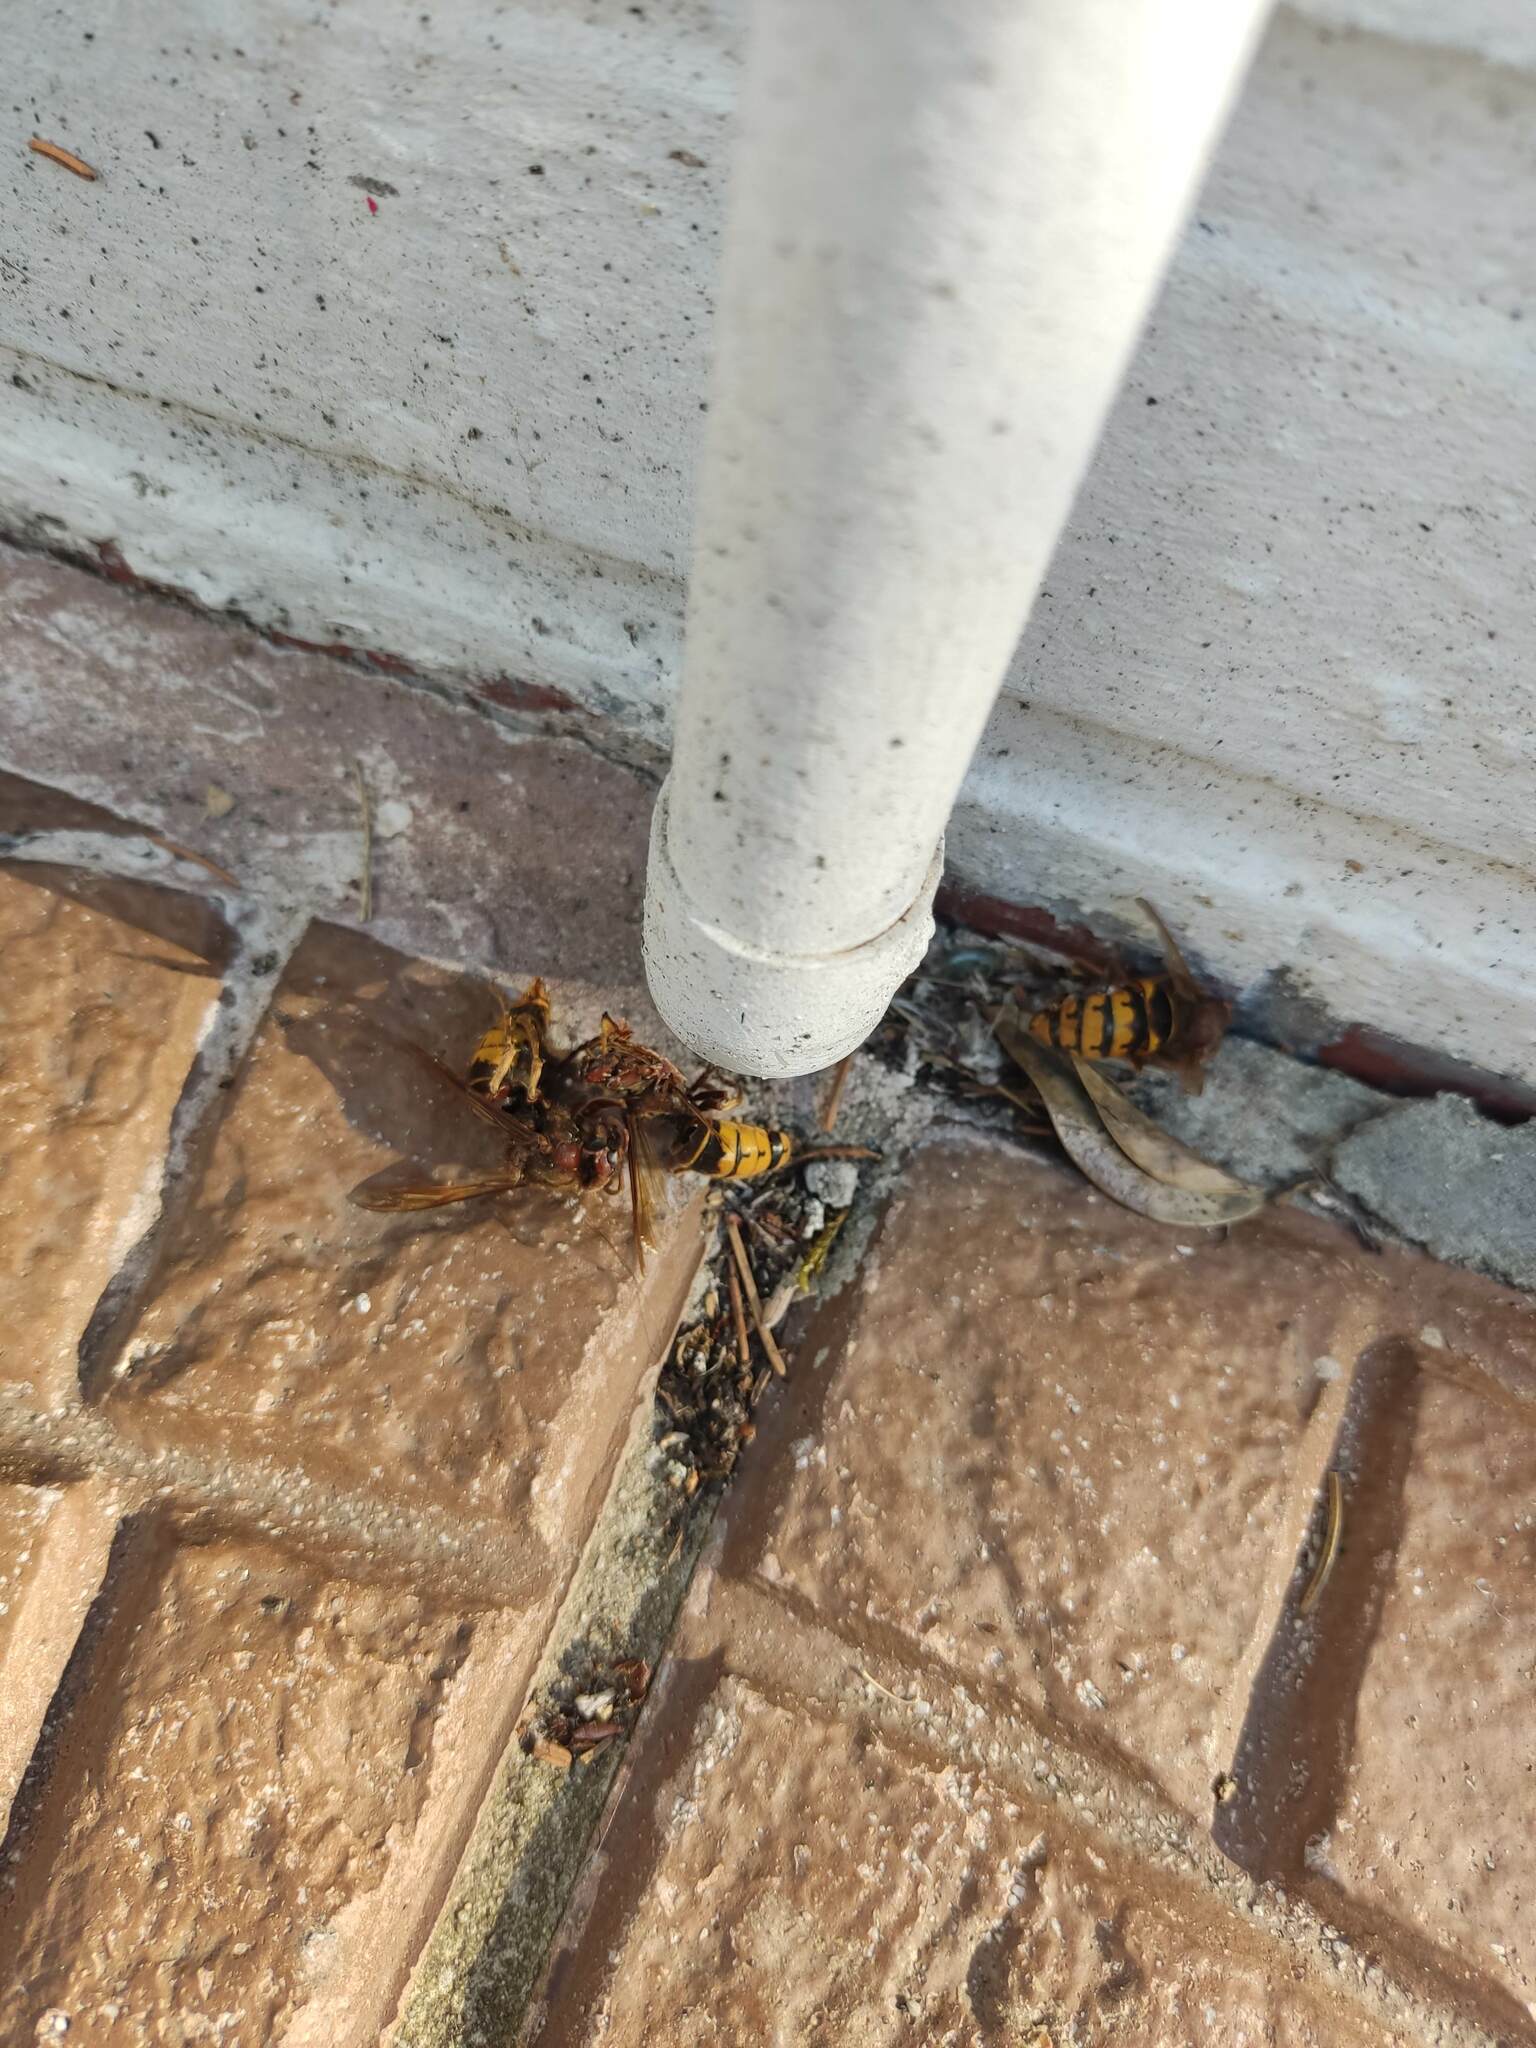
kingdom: Animalia
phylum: Arthropoda
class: Insecta
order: Hymenoptera
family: Vespidae
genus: Vespa
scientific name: Vespa crabro
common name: Hornet
